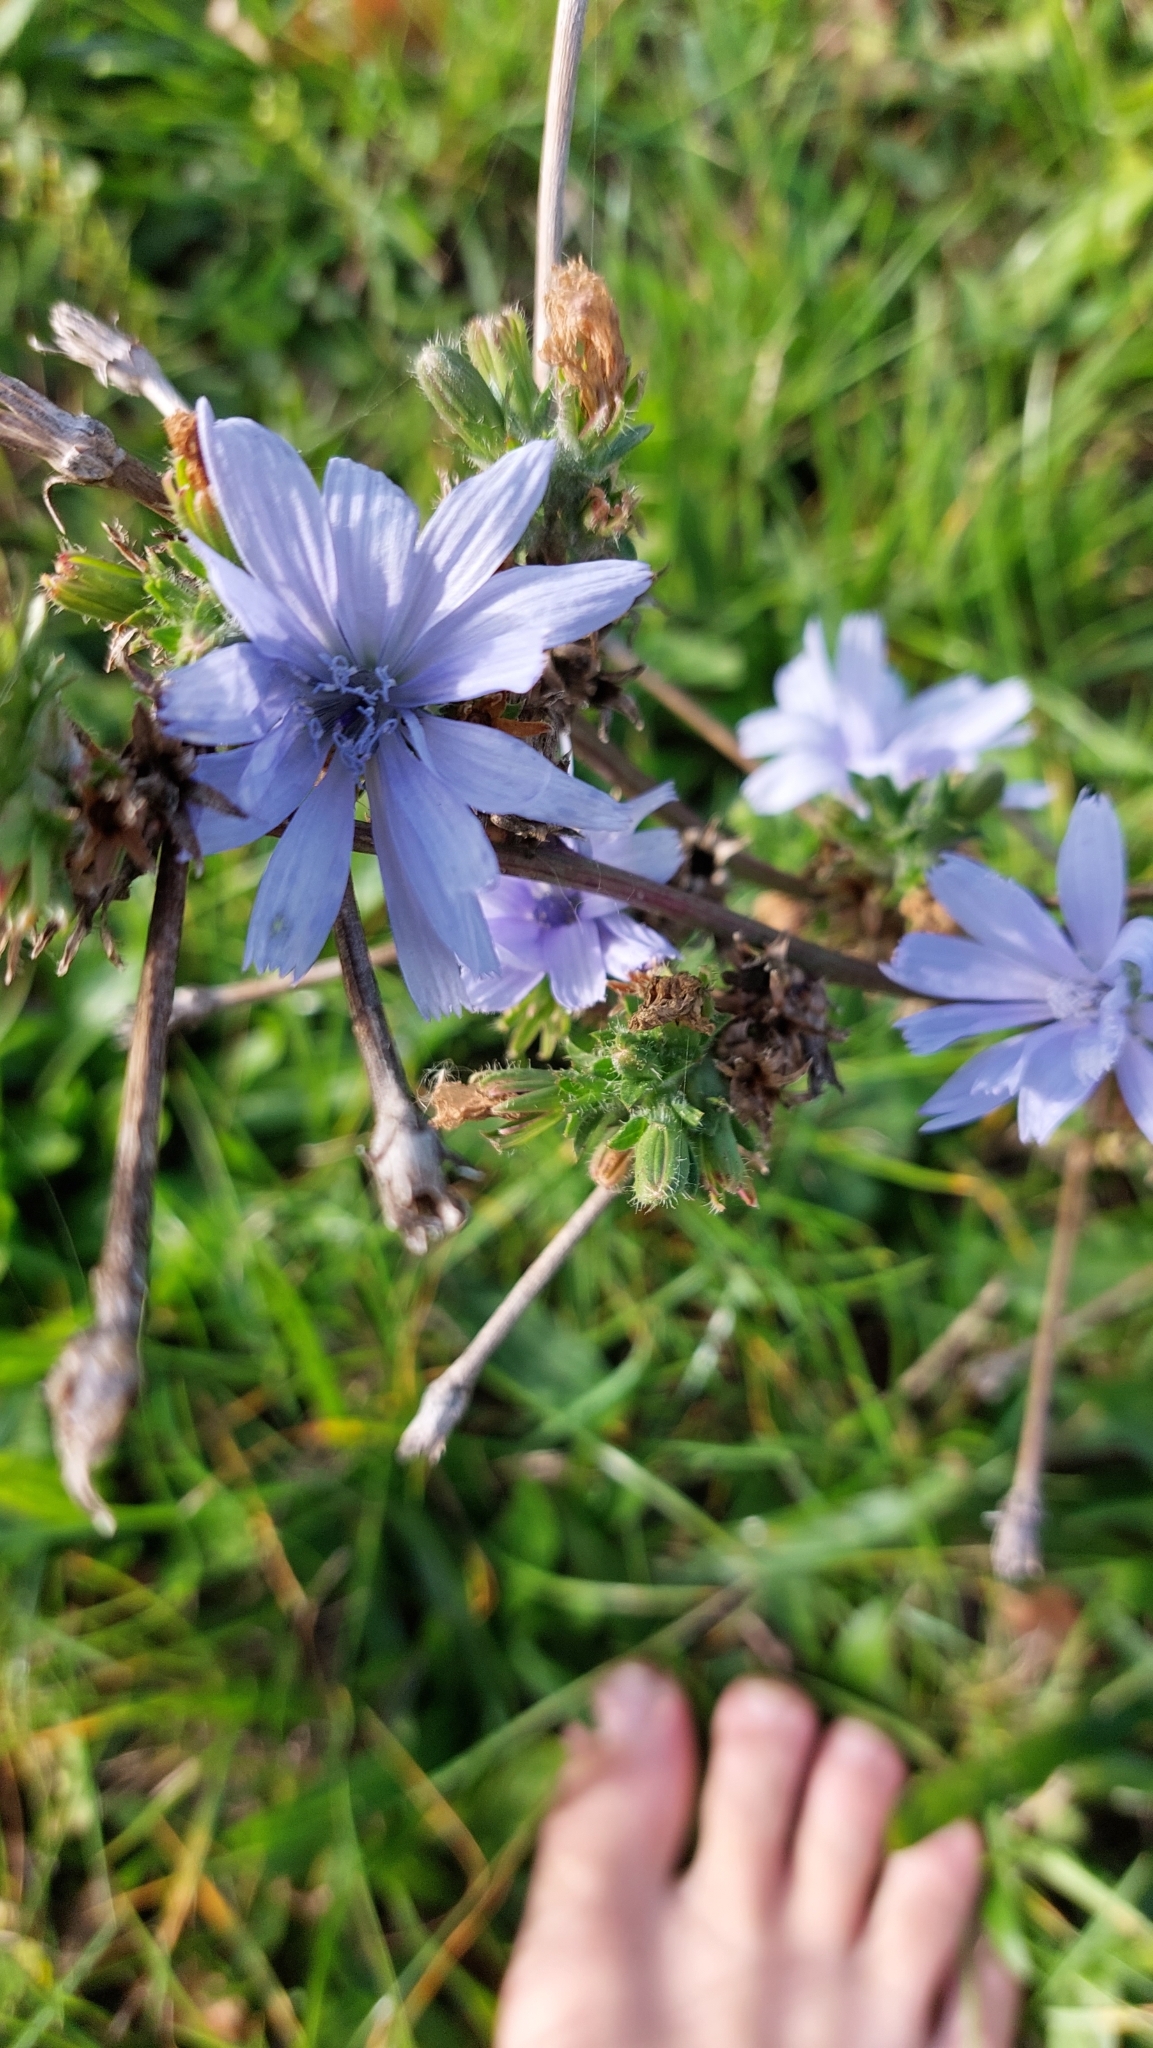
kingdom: Plantae
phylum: Tracheophyta
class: Magnoliopsida
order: Asterales
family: Asteraceae
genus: Cichorium
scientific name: Cichorium intybus
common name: Chicory
